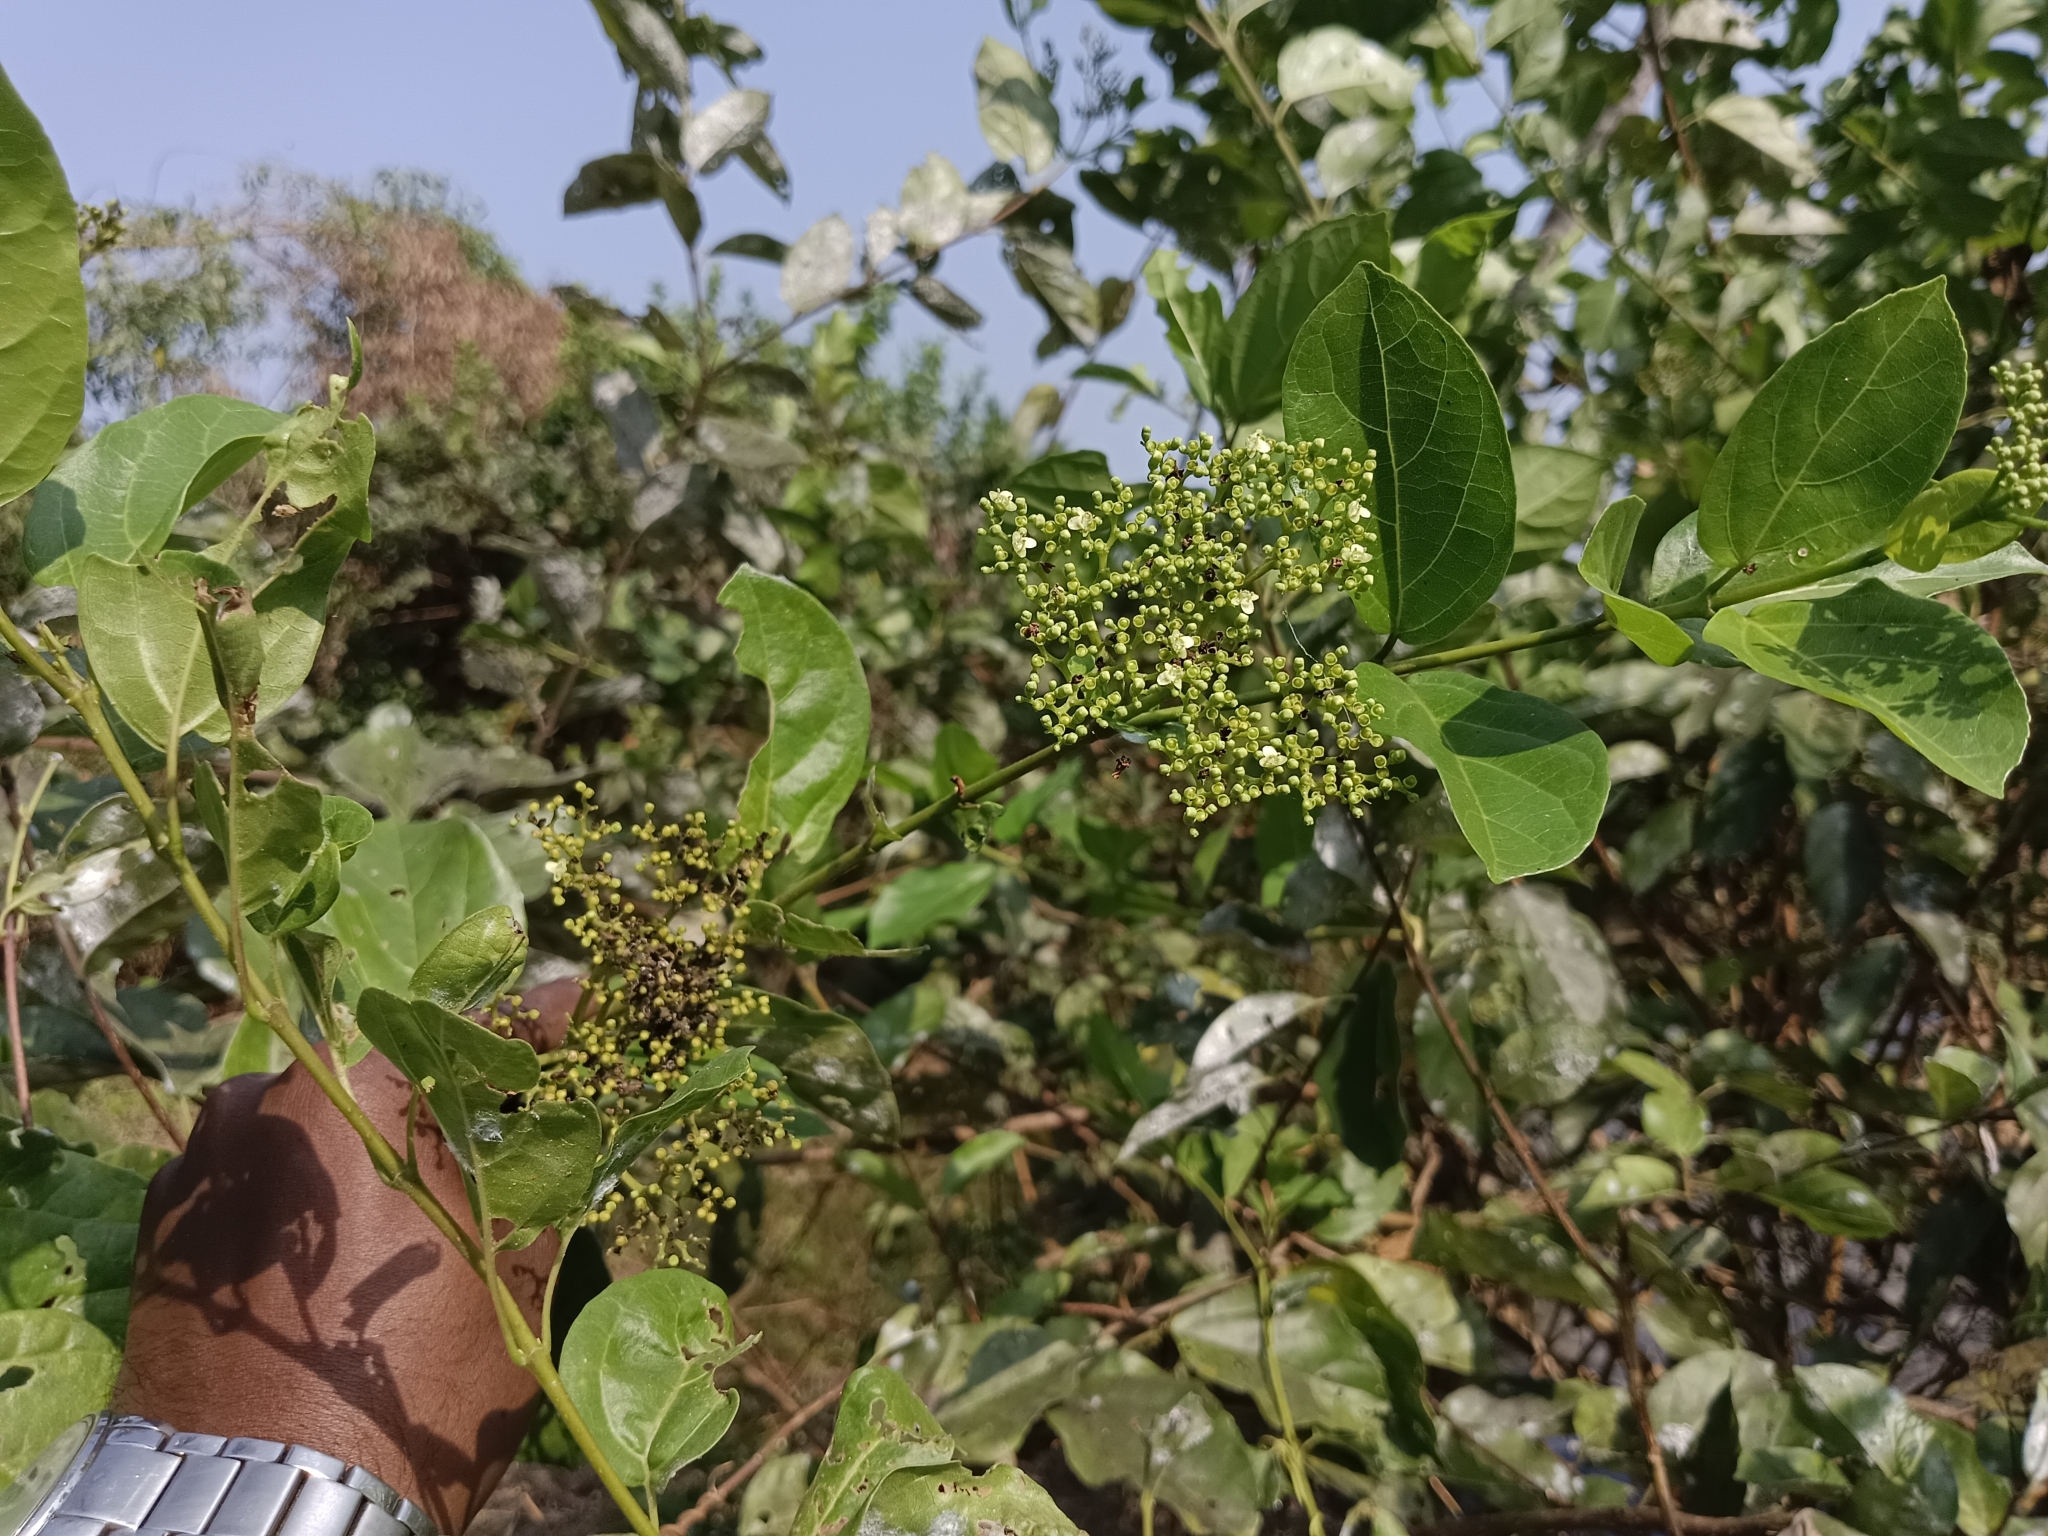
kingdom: Plantae
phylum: Tracheophyta
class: Magnoliopsida
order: Lamiales
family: Lamiaceae
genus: Premna
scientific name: Premna serratifolia
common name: Bastard guelder
